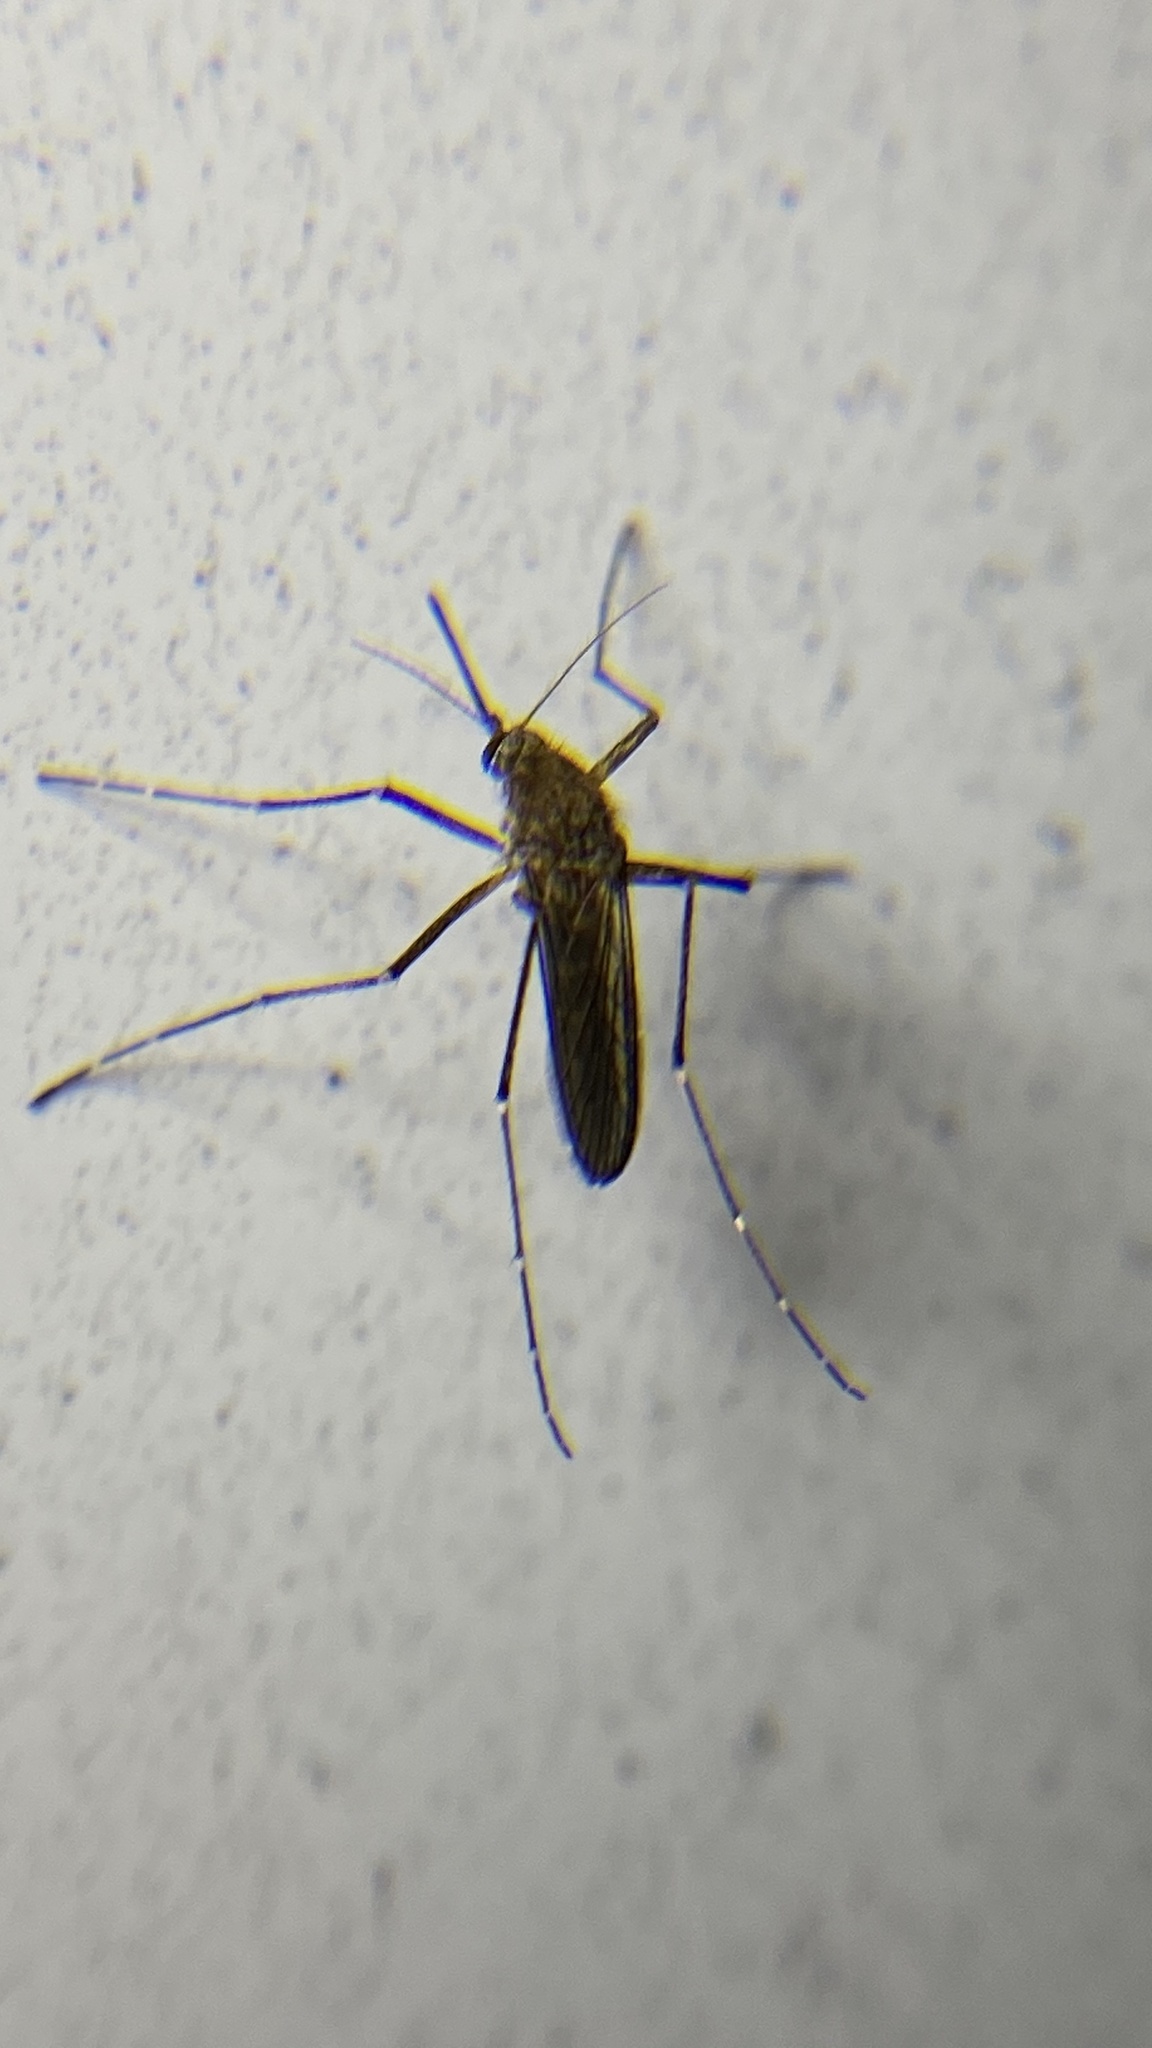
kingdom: Animalia
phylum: Arthropoda
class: Insecta
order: Diptera
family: Culicidae
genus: Aedes
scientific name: Aedes vexans
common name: Inland floodwater mosquito
